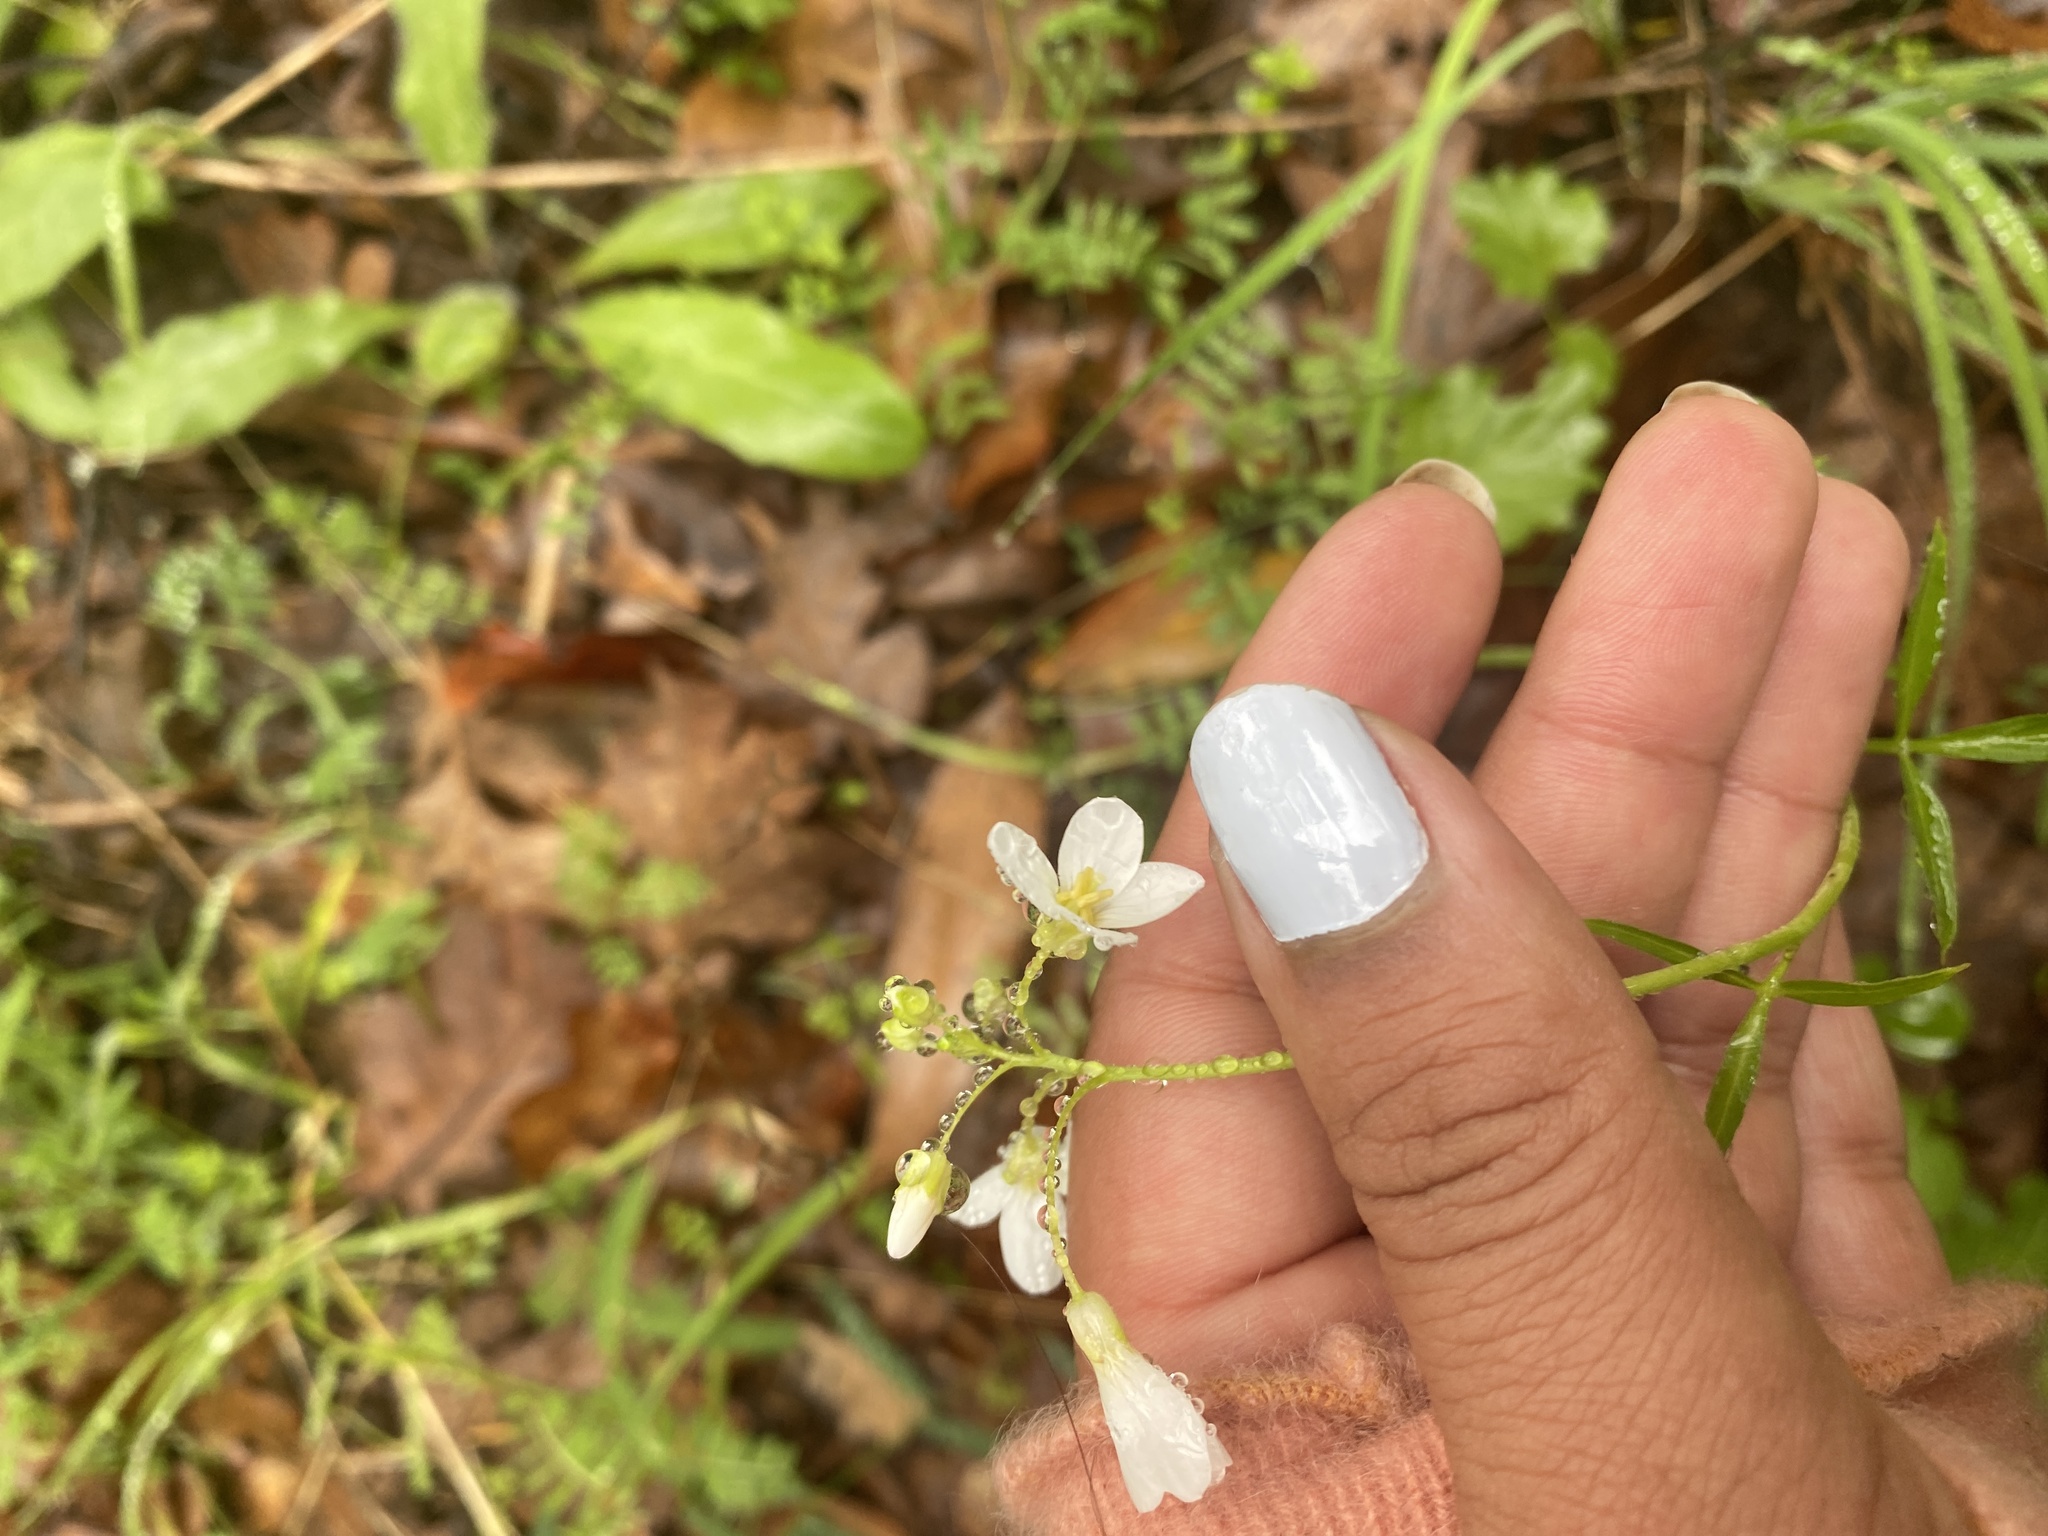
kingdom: Plantae
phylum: Tracheophyta
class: Magnoliopsida
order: Brassicales
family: Brassicaceae
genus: Cardamine
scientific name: Cardamine californica
